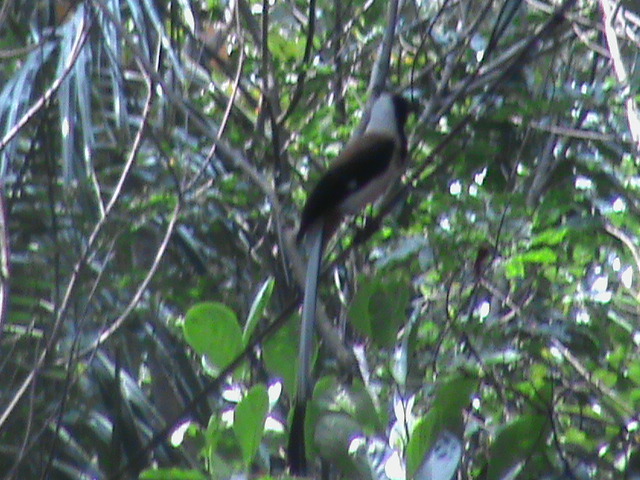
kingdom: Animalia
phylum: Chordata
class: Aves
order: Passeriformes
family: Corvidae
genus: Dendrocitta
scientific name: Dendrocitta leucogastra
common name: White-bellied treepie
